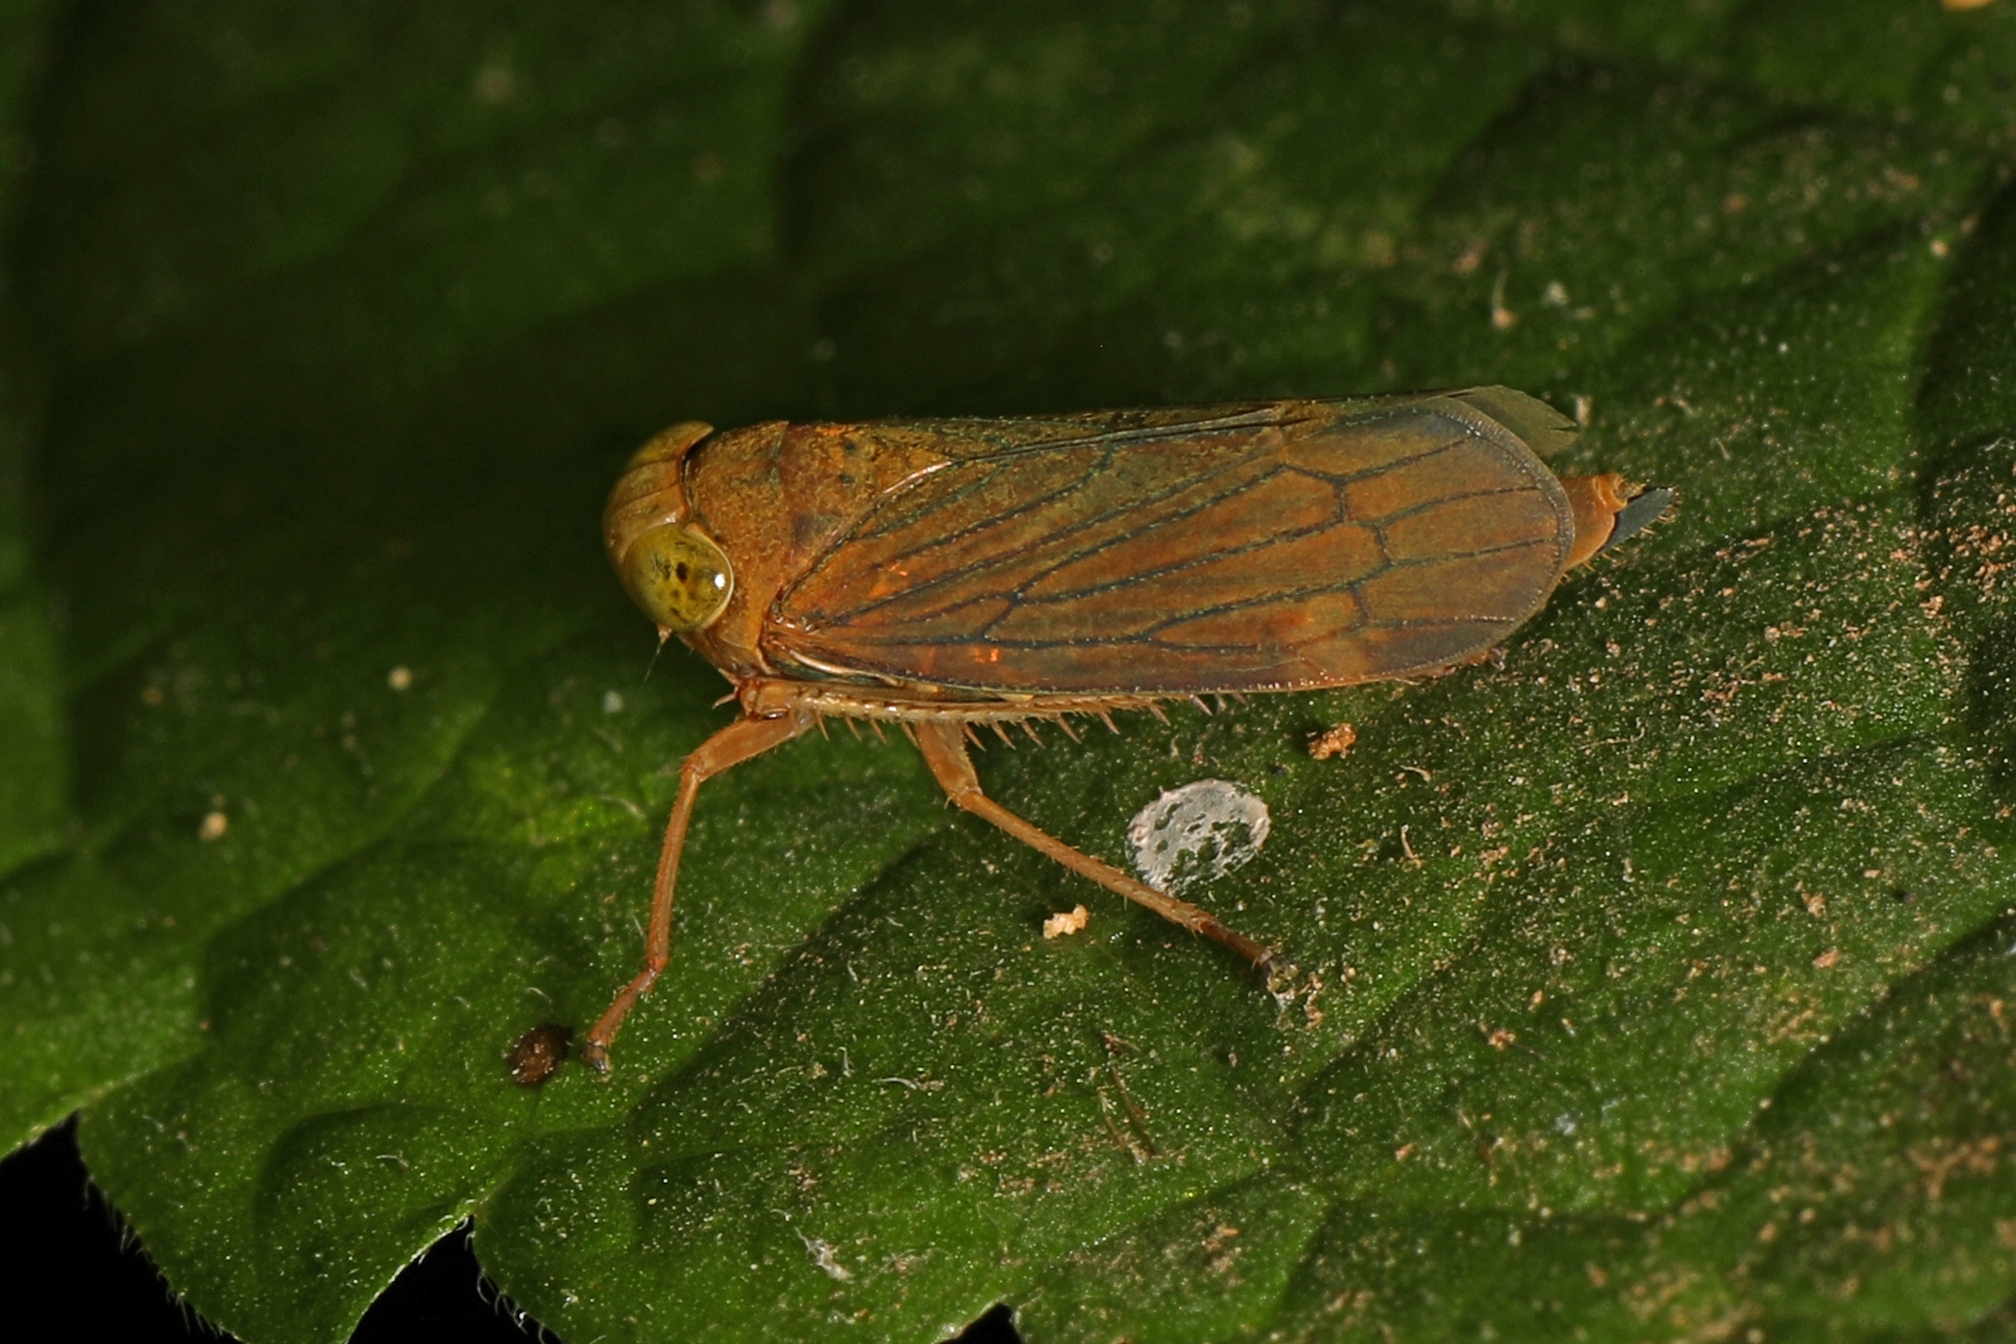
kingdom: Animalia
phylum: Arthropoda
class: Insecta
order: Hemiptera
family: Cicadellidae
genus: Jikradia
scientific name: Jikradia olitoria
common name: Coppery leafhopper
